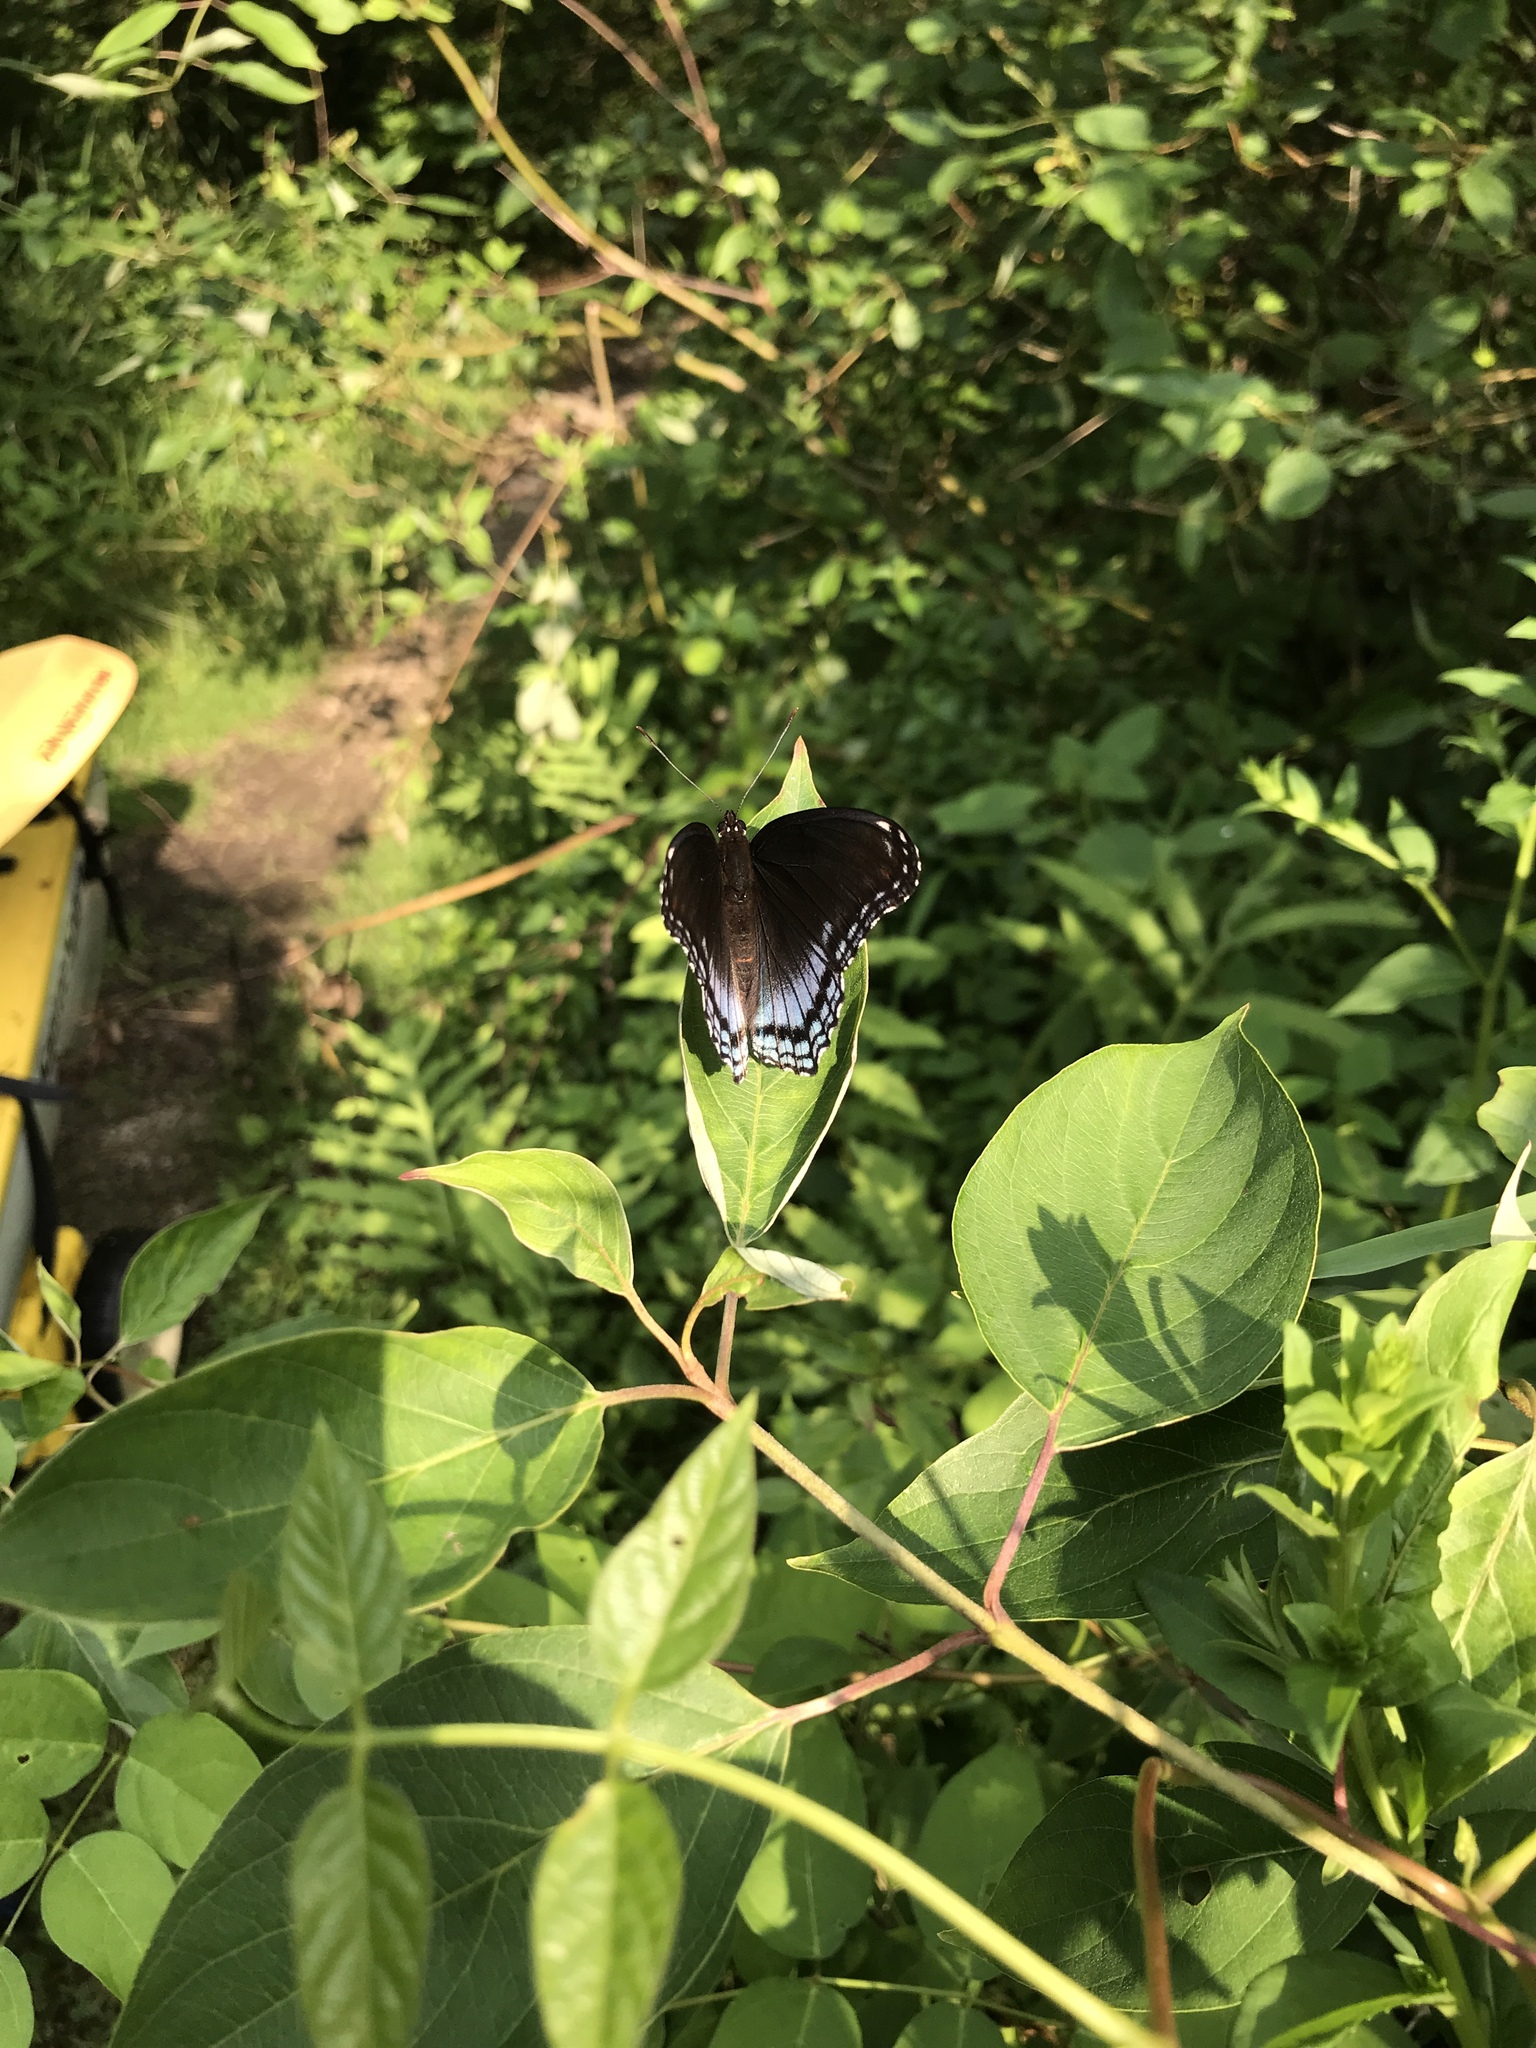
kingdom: Animalia
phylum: Arthropoda
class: Insecta
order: Lepidoptera
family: Nymphalidae
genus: Limenitis
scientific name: Limenitis
